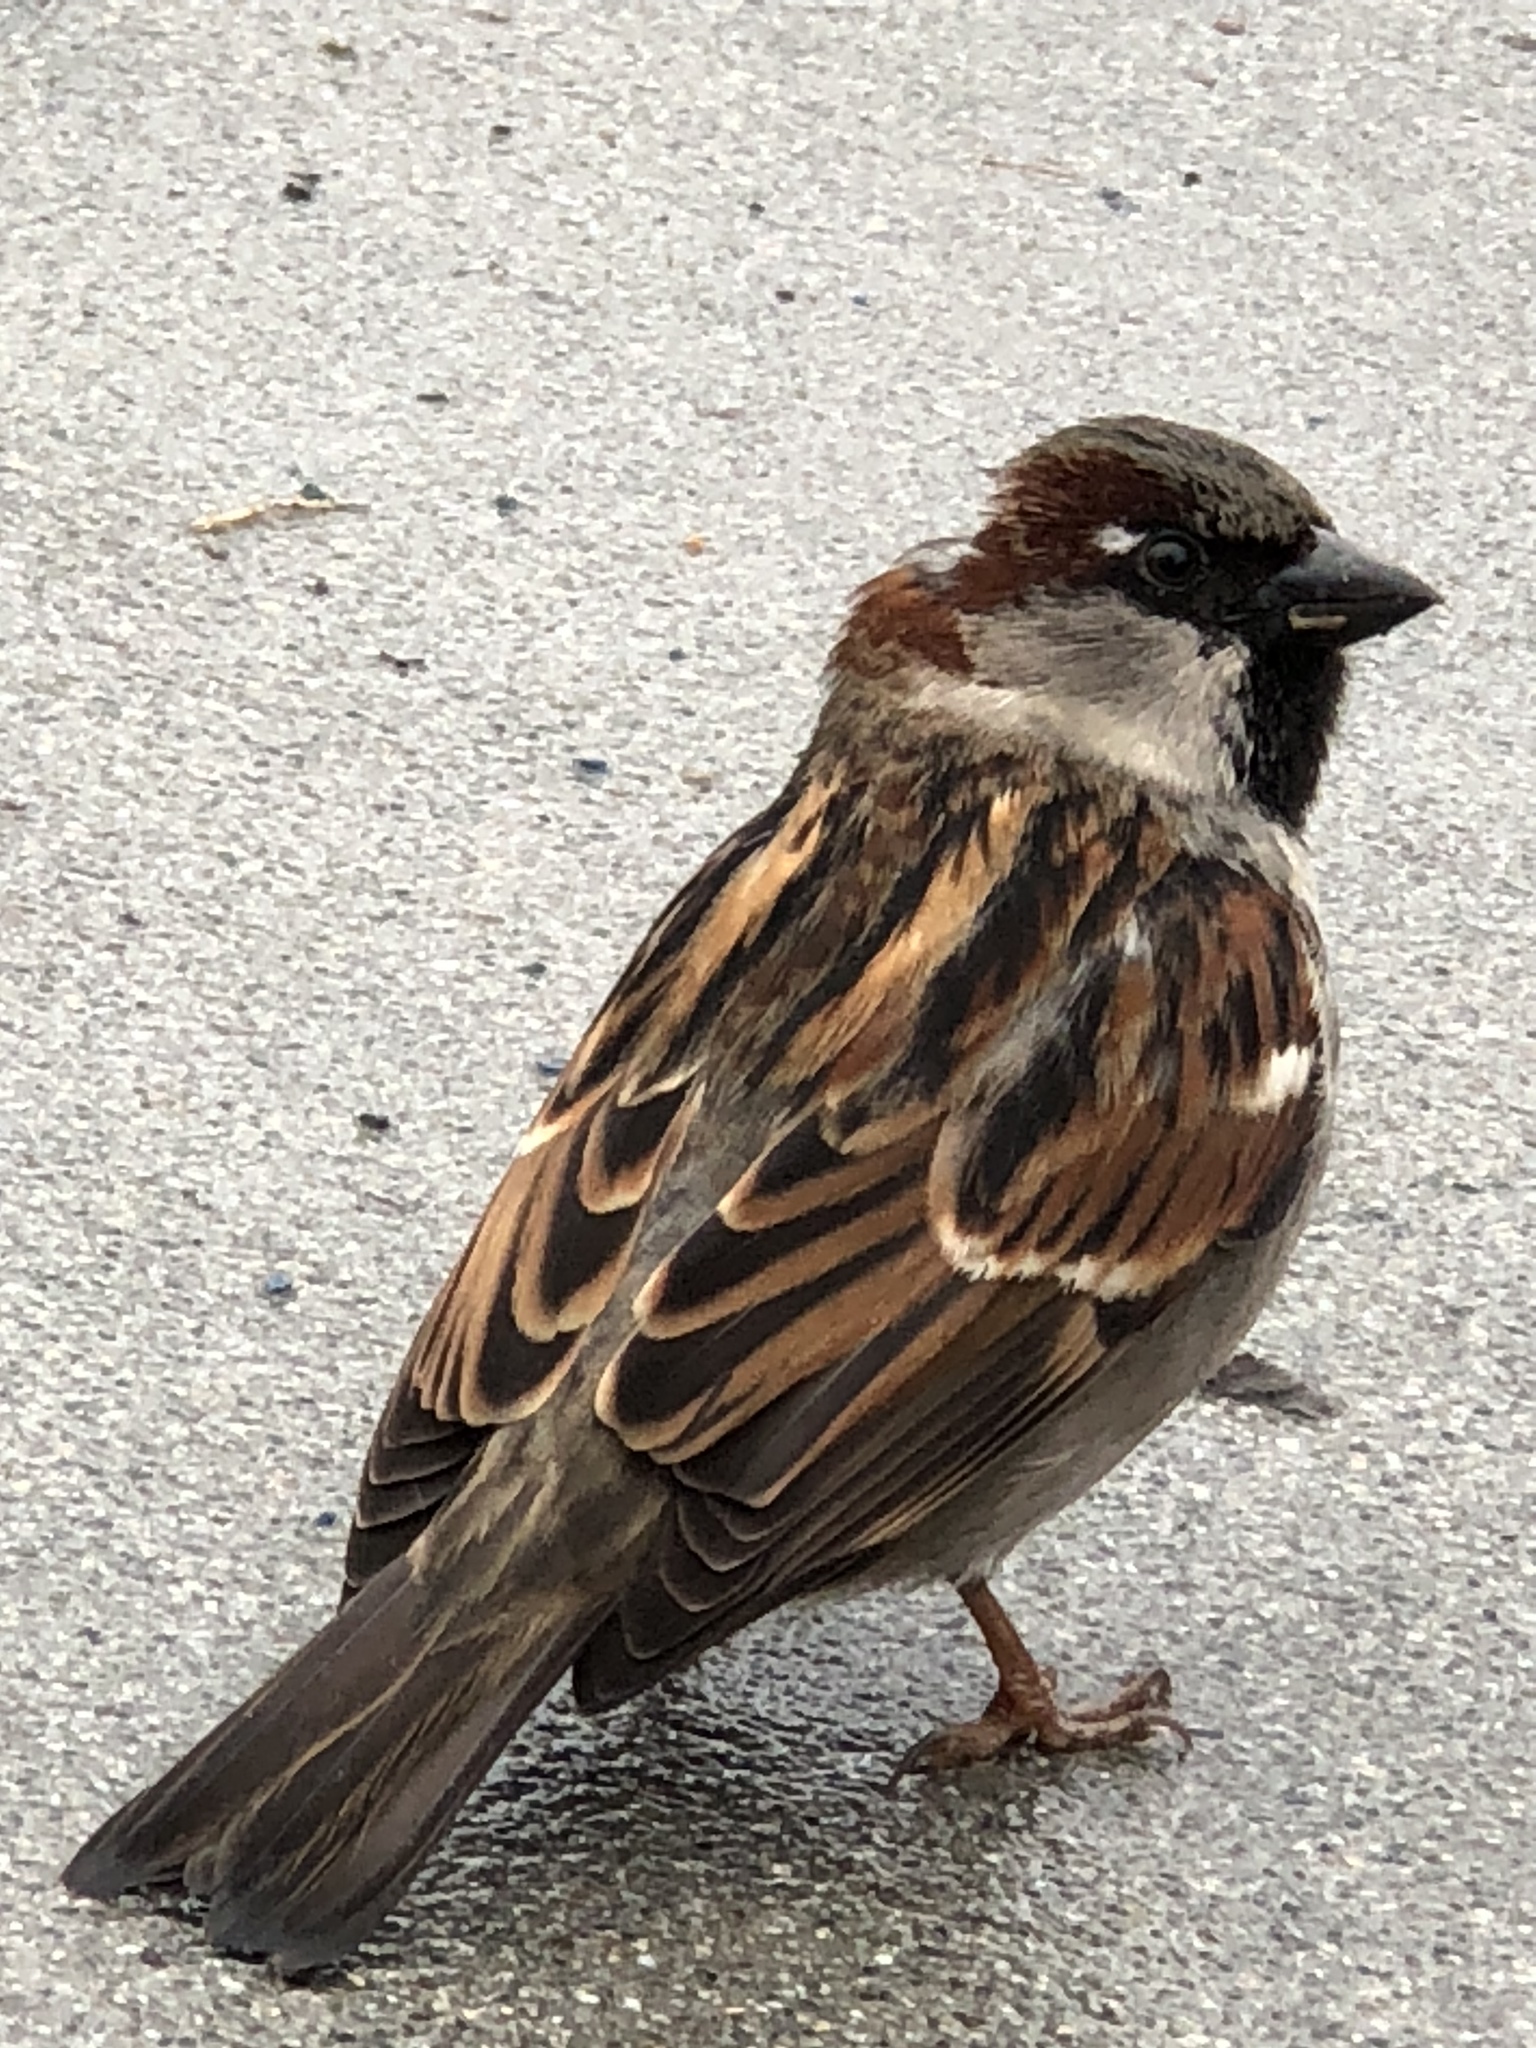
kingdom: Animalia
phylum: Chordata
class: Aves
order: Passeriformes
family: Passeridae
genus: Passer
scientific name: Passer domesticus
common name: House sparrow
